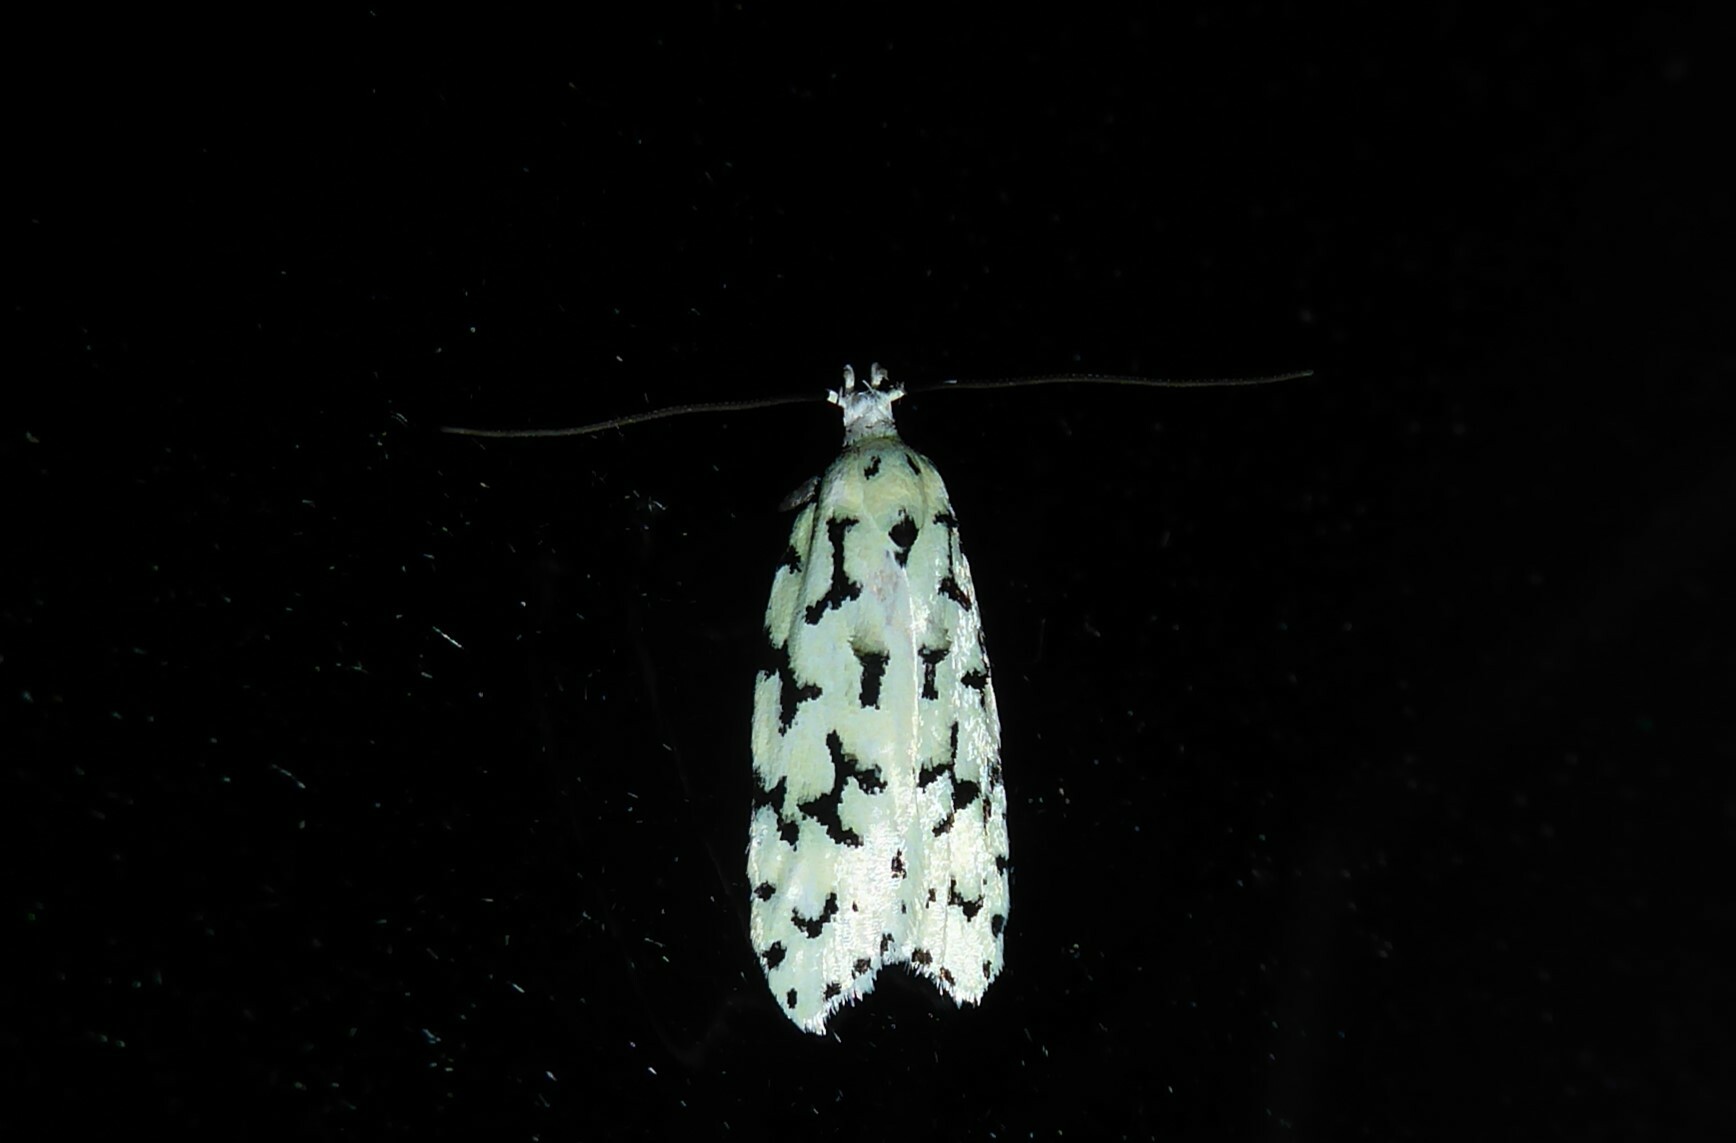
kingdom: Animalia
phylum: Arthropoda
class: Insecta
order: Lepidoptera
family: Oecophoridae
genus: Izatha
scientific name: Izatha huttoni
